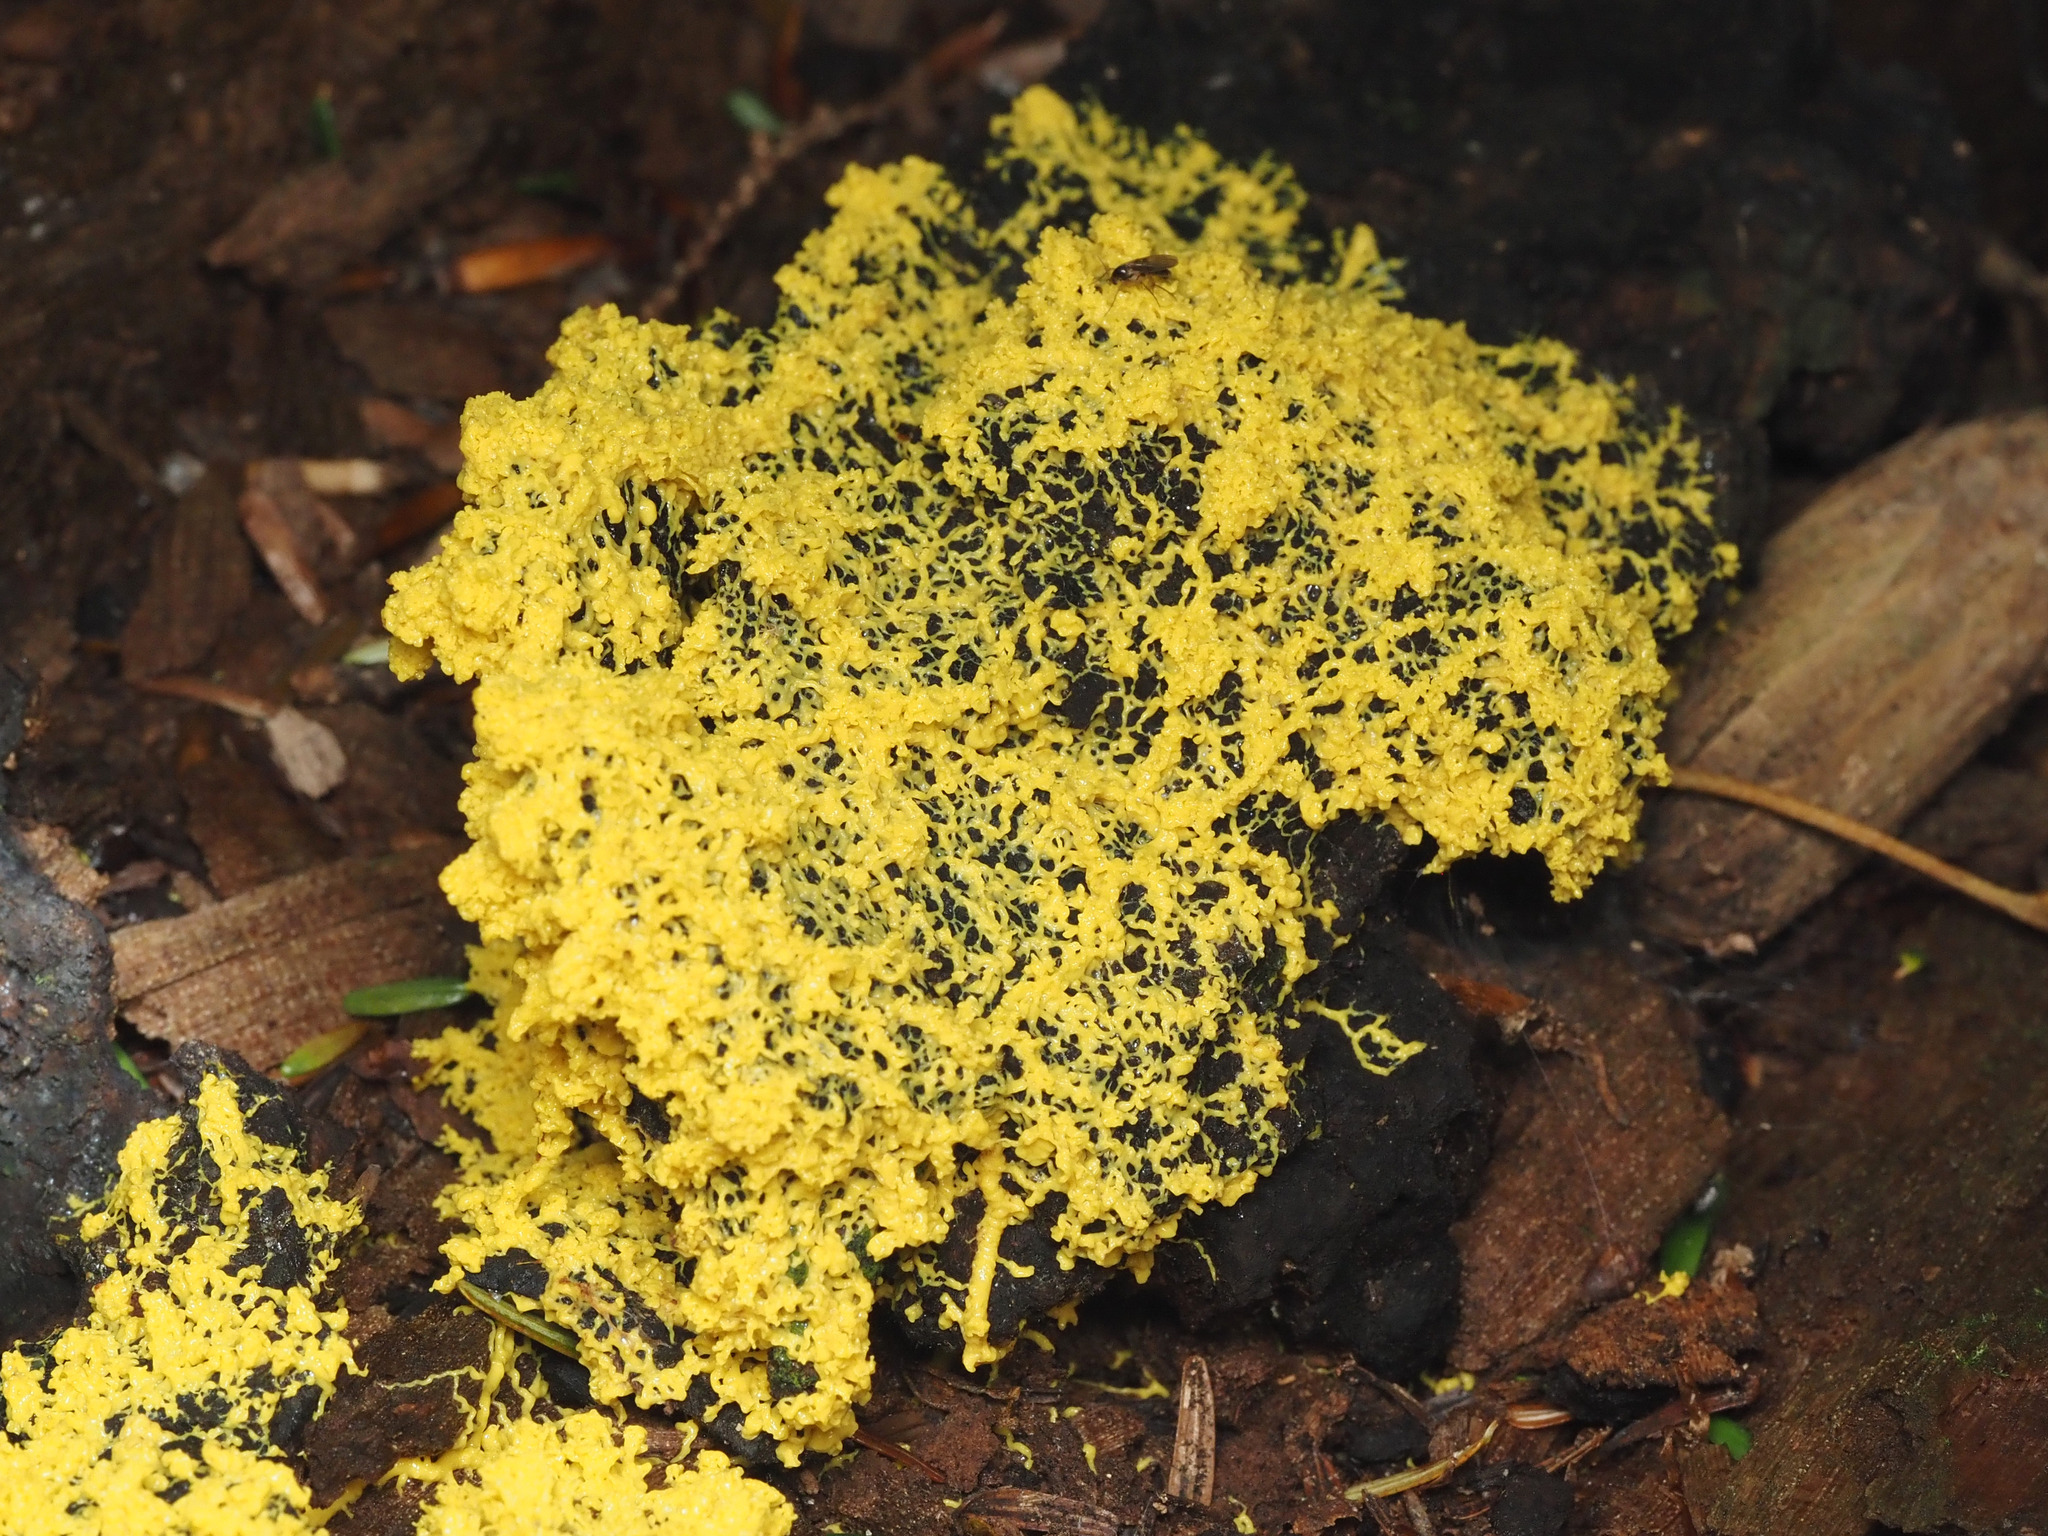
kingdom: Protozoa
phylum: Mycetozoa
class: Myxomycetes
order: Physarales
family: Physaraceae
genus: Fuligo
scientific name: Fuligo septica
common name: Dog vomit slime mold
